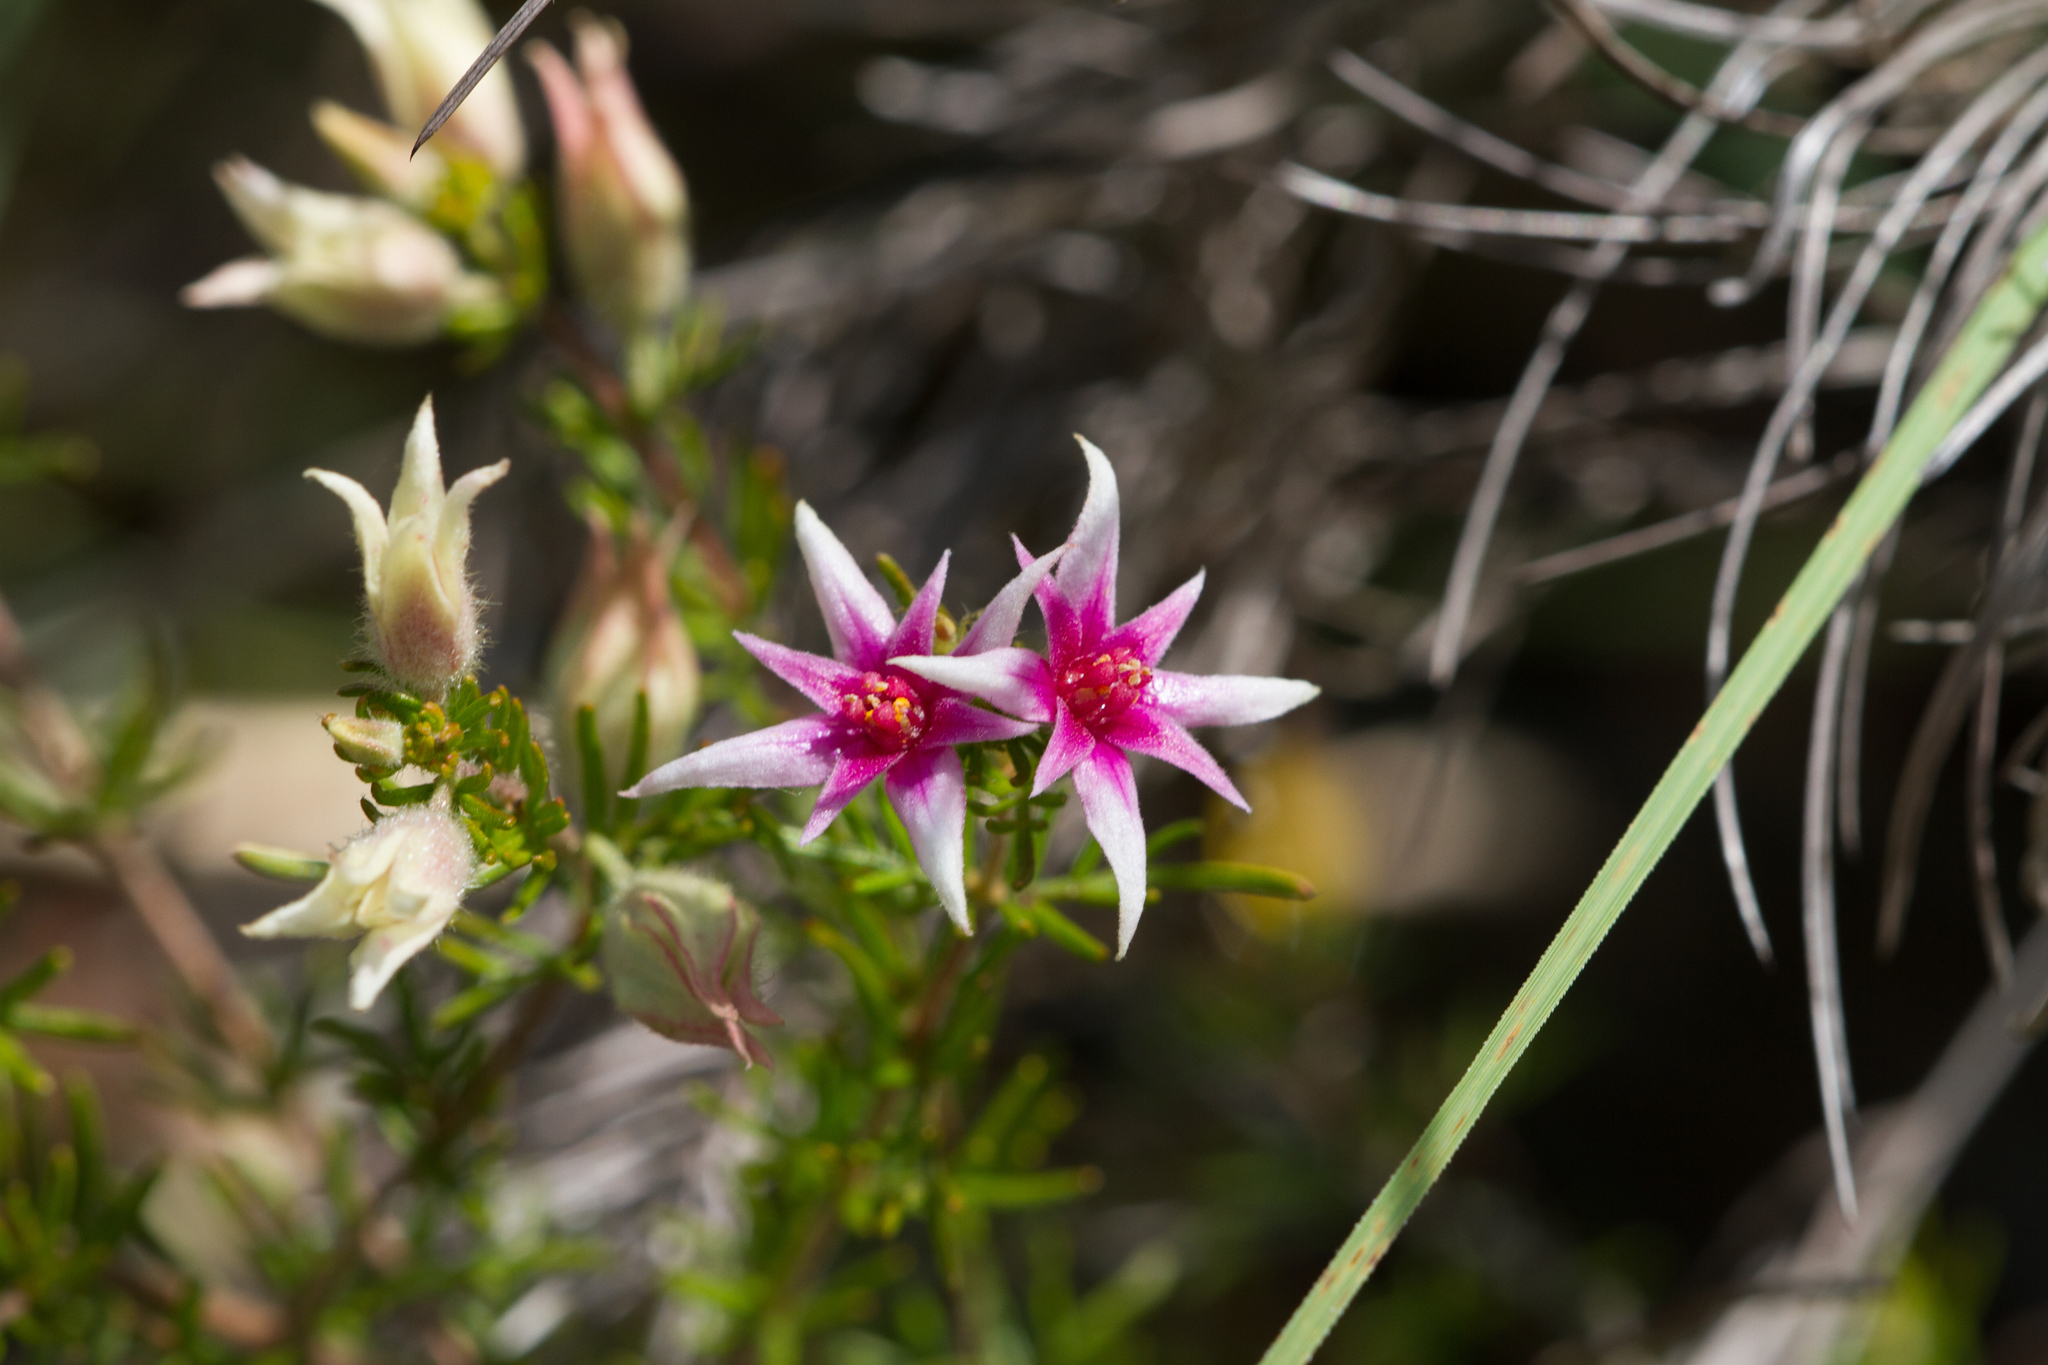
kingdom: Plantae
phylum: Tracheophyta
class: Magnoliopsida
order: Sapindales
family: Rutaceae
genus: Boronia
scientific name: Boronia lanuginosa
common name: Red boronia
